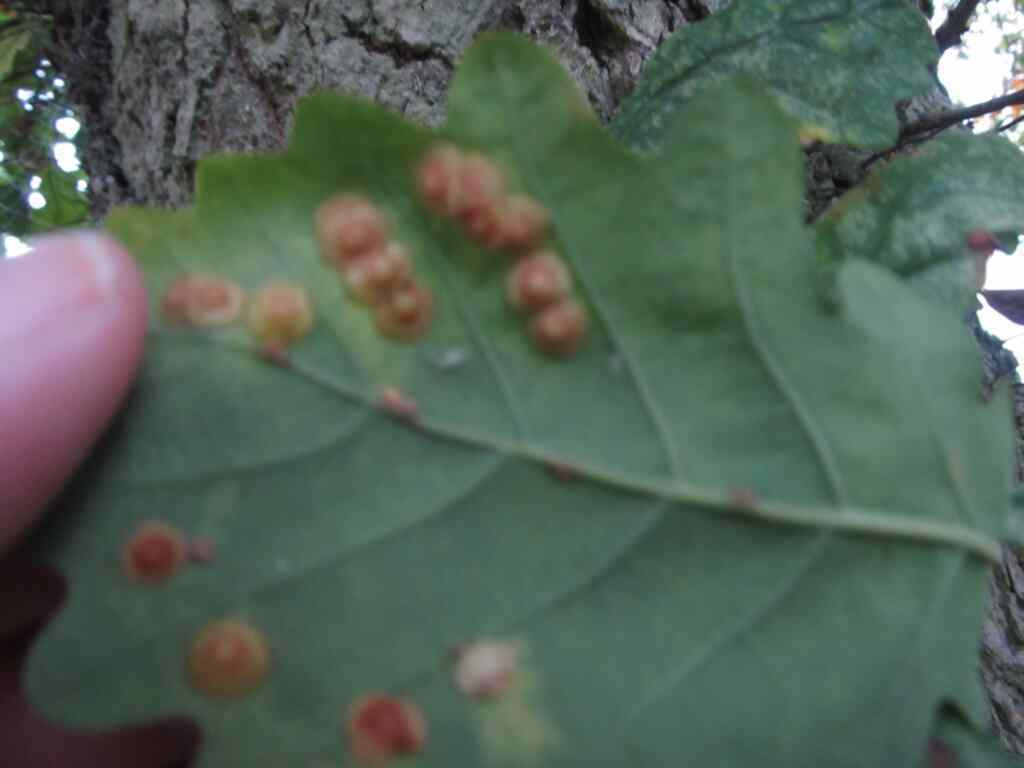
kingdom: Animalia
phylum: Arthropoda
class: Insecta
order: Hymenoptera
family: Cynipidae
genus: Neuroterus
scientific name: Neuroterus quercusbaccarum
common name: Common spangle gall
